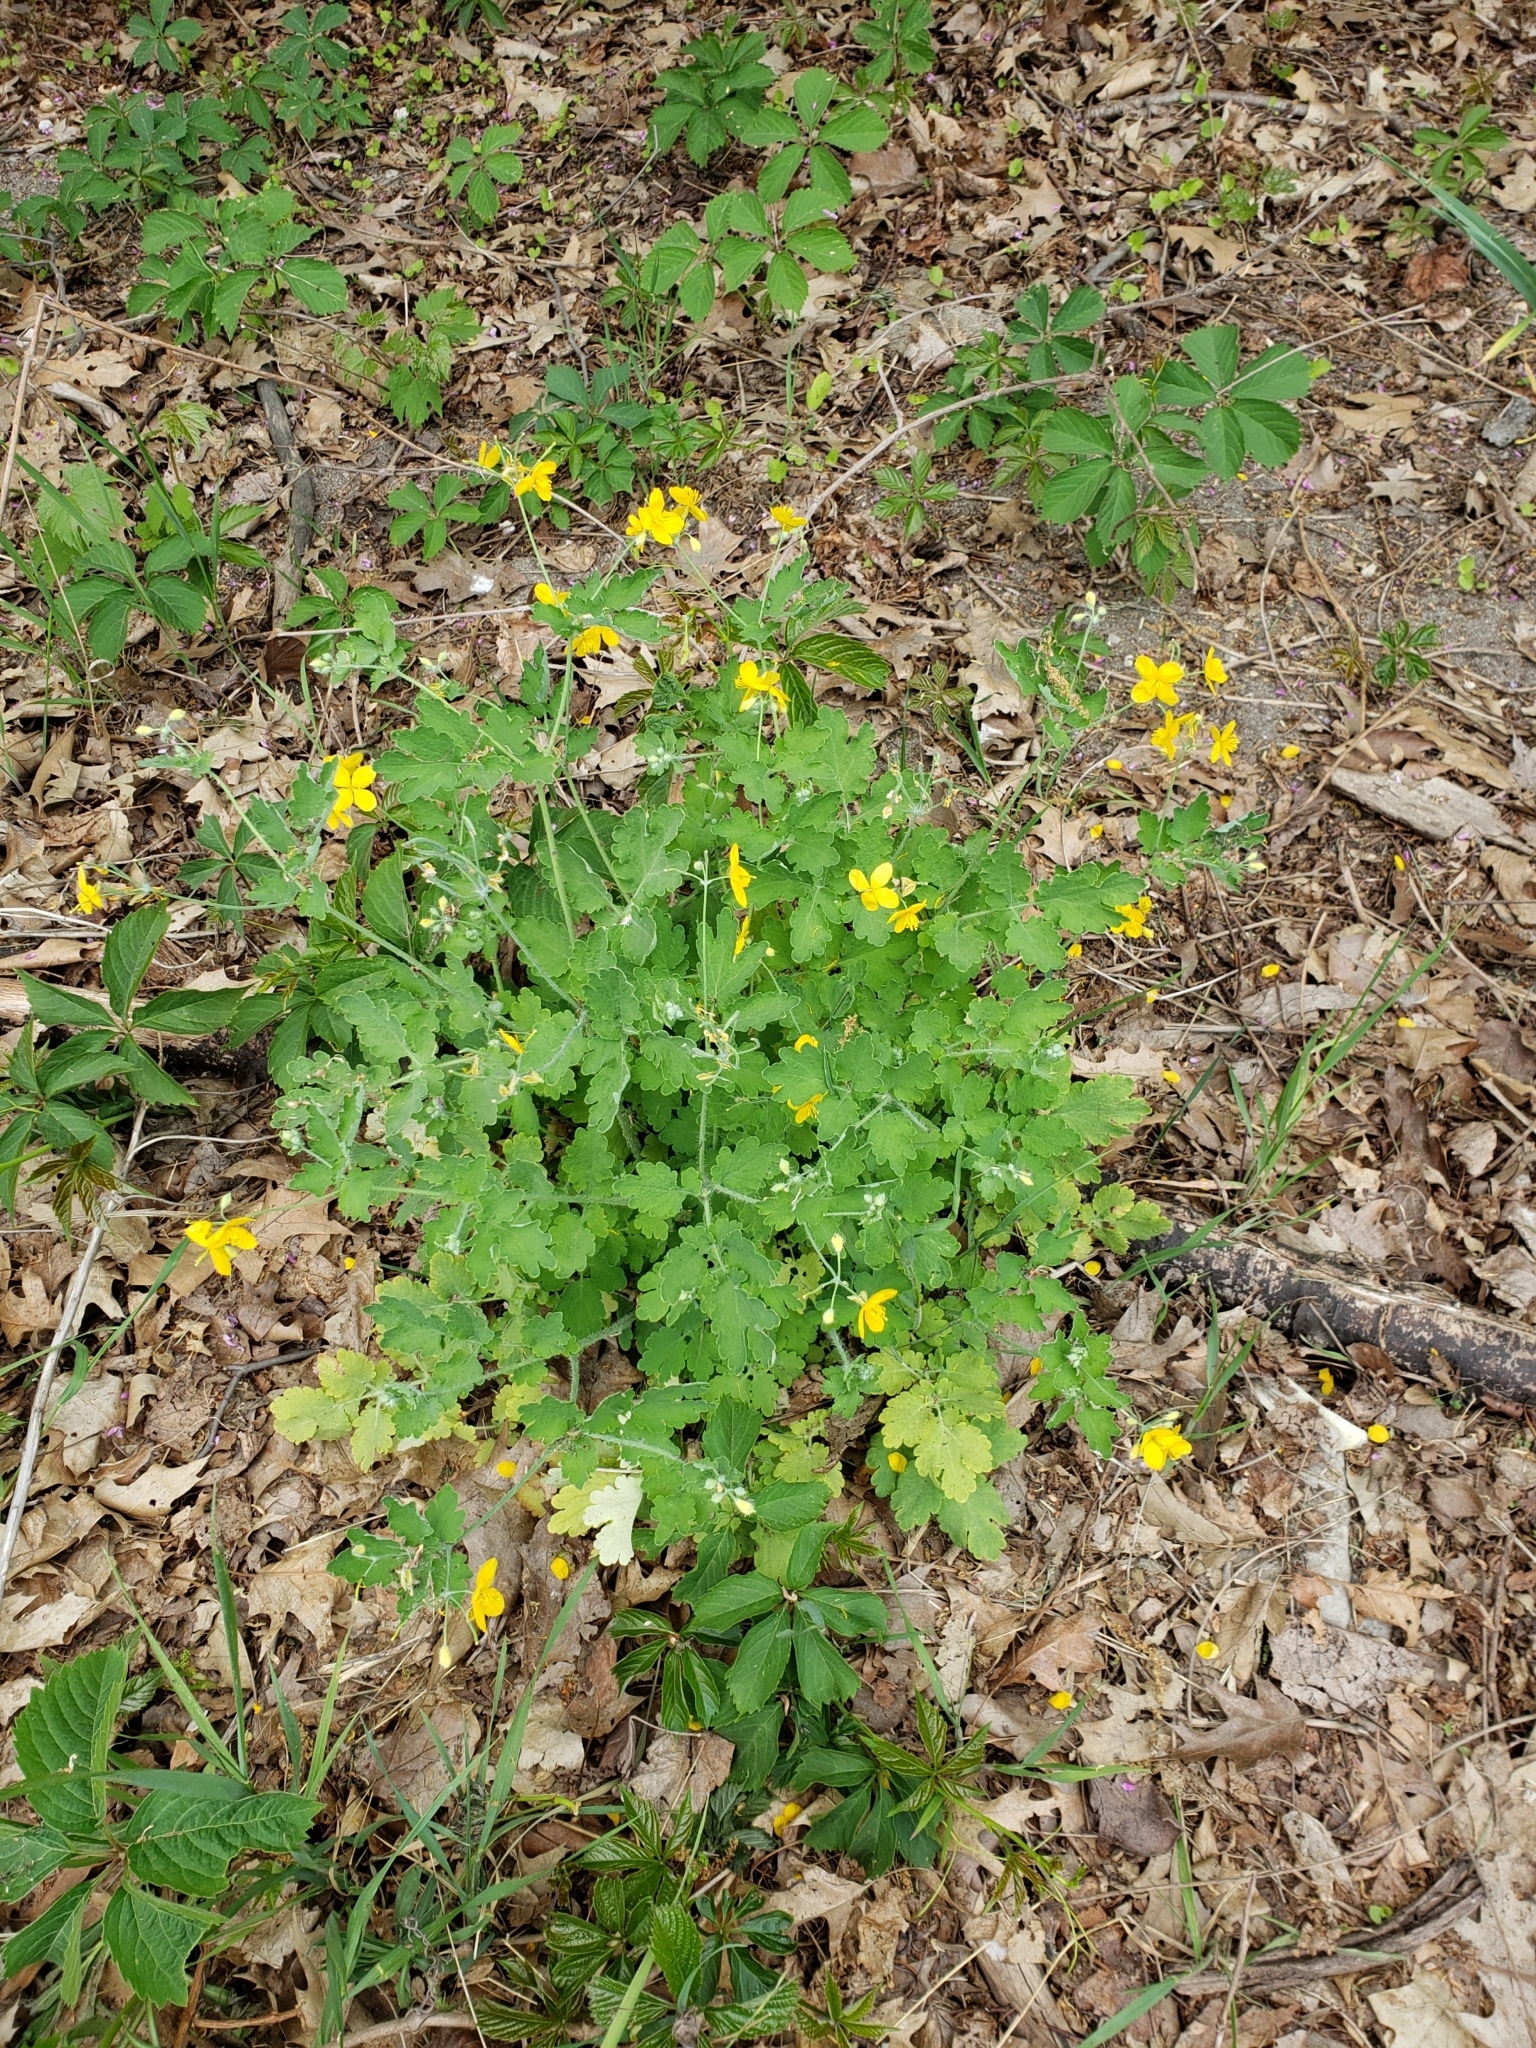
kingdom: Plantae
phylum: Tracheophyta
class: Magnoliopsida
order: Ranunculales
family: Papaveraceae
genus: Chelidonium
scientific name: Chelidonium majus
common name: Greater celandine
